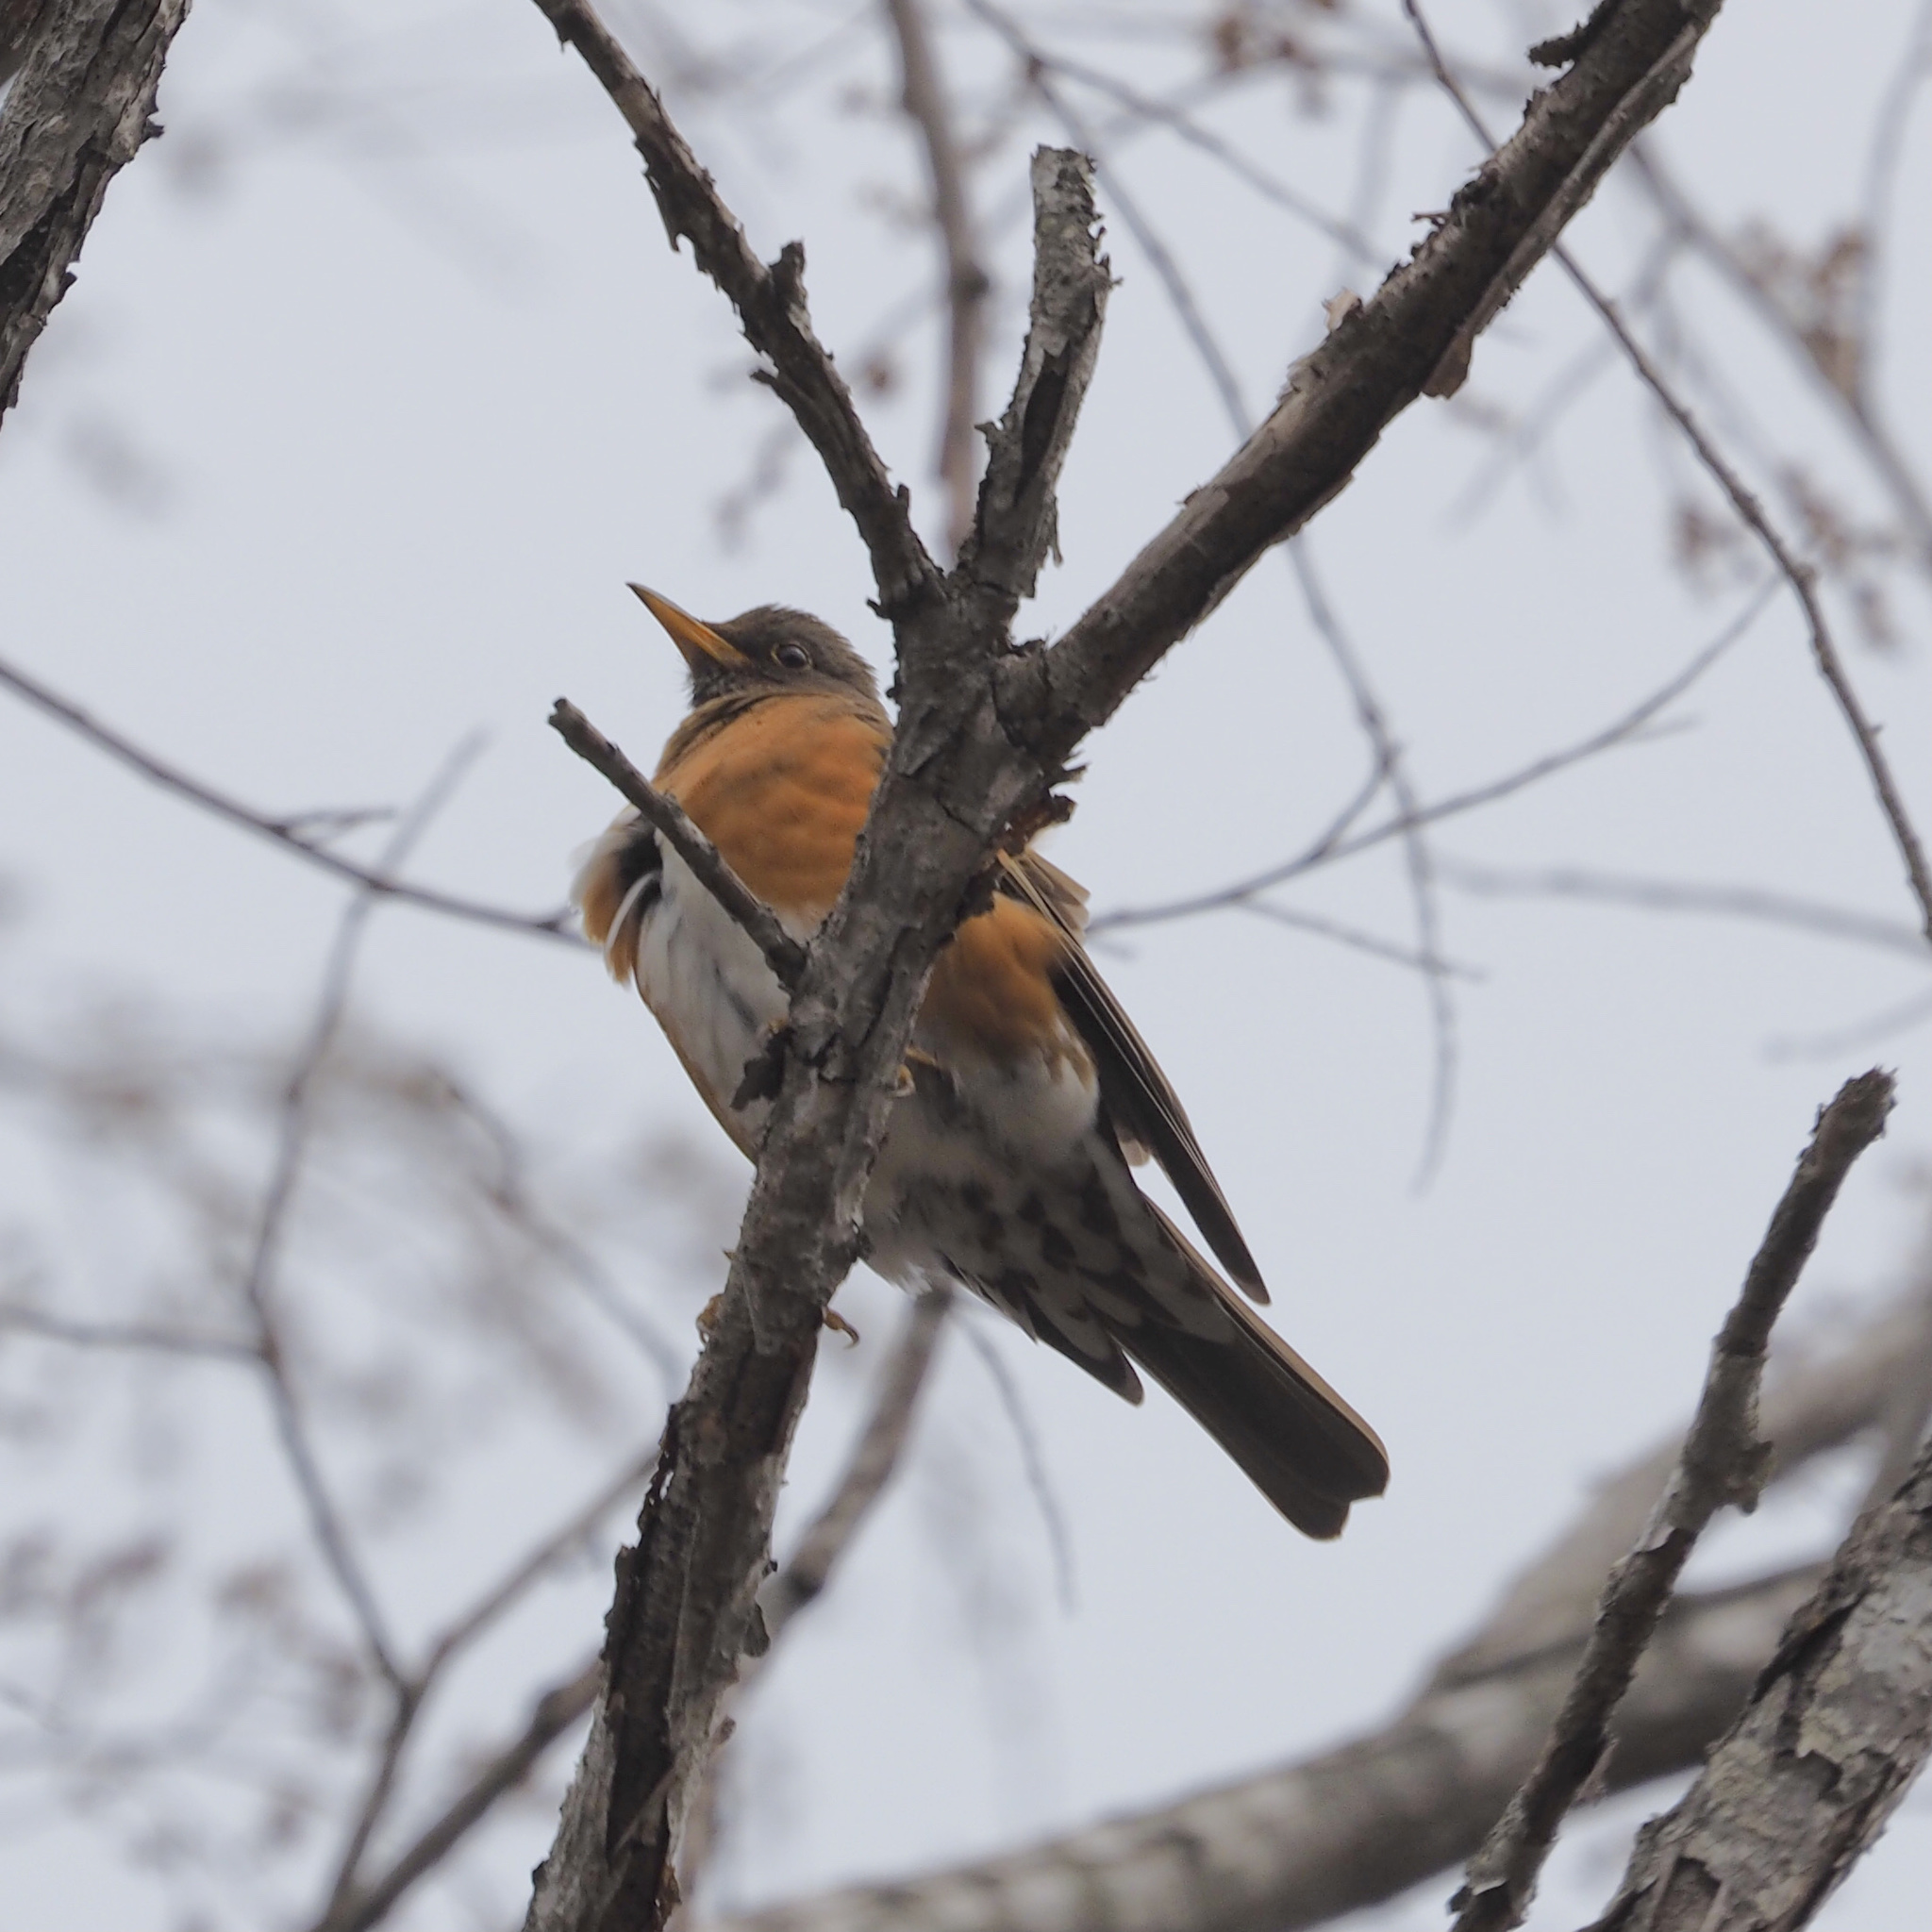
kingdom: Animalia
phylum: Chordata
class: Aves
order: Passeriformes
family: Turdidae
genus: Turdus
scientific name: Turdus chrysolaus
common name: Brown-headed thrush
